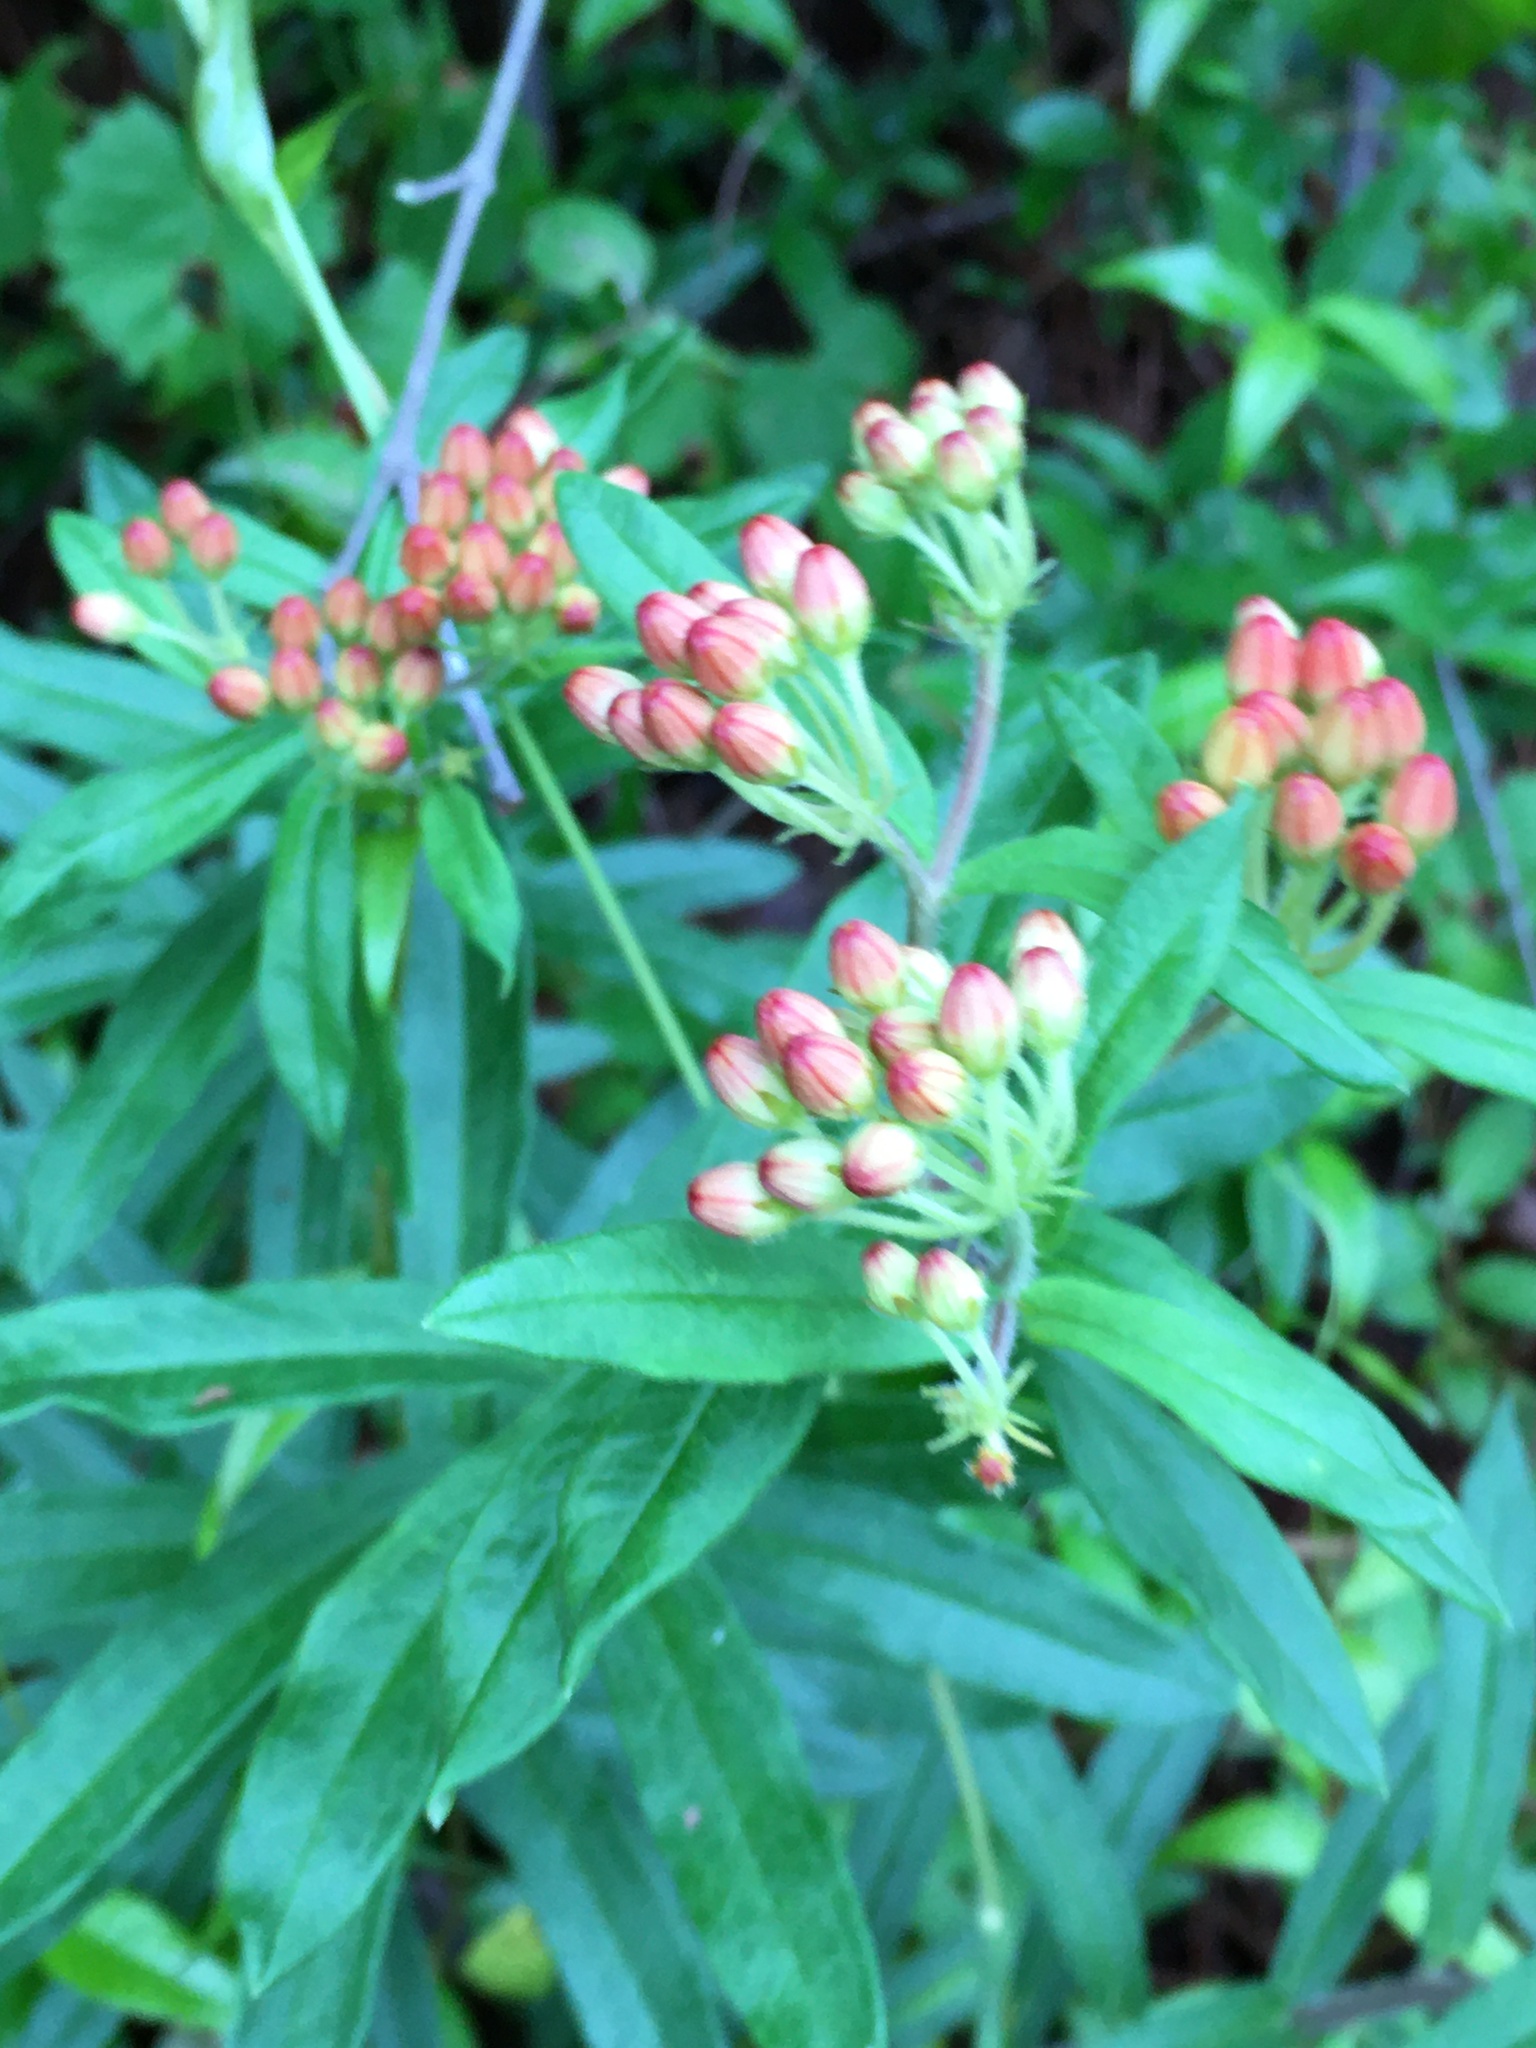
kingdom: Plantae
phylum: Tracheophyta
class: Magnoliopsida
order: Gentianales
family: Apocynaceae
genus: Asclepias
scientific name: Asclepias tuberosa
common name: Butterfly milkweed
